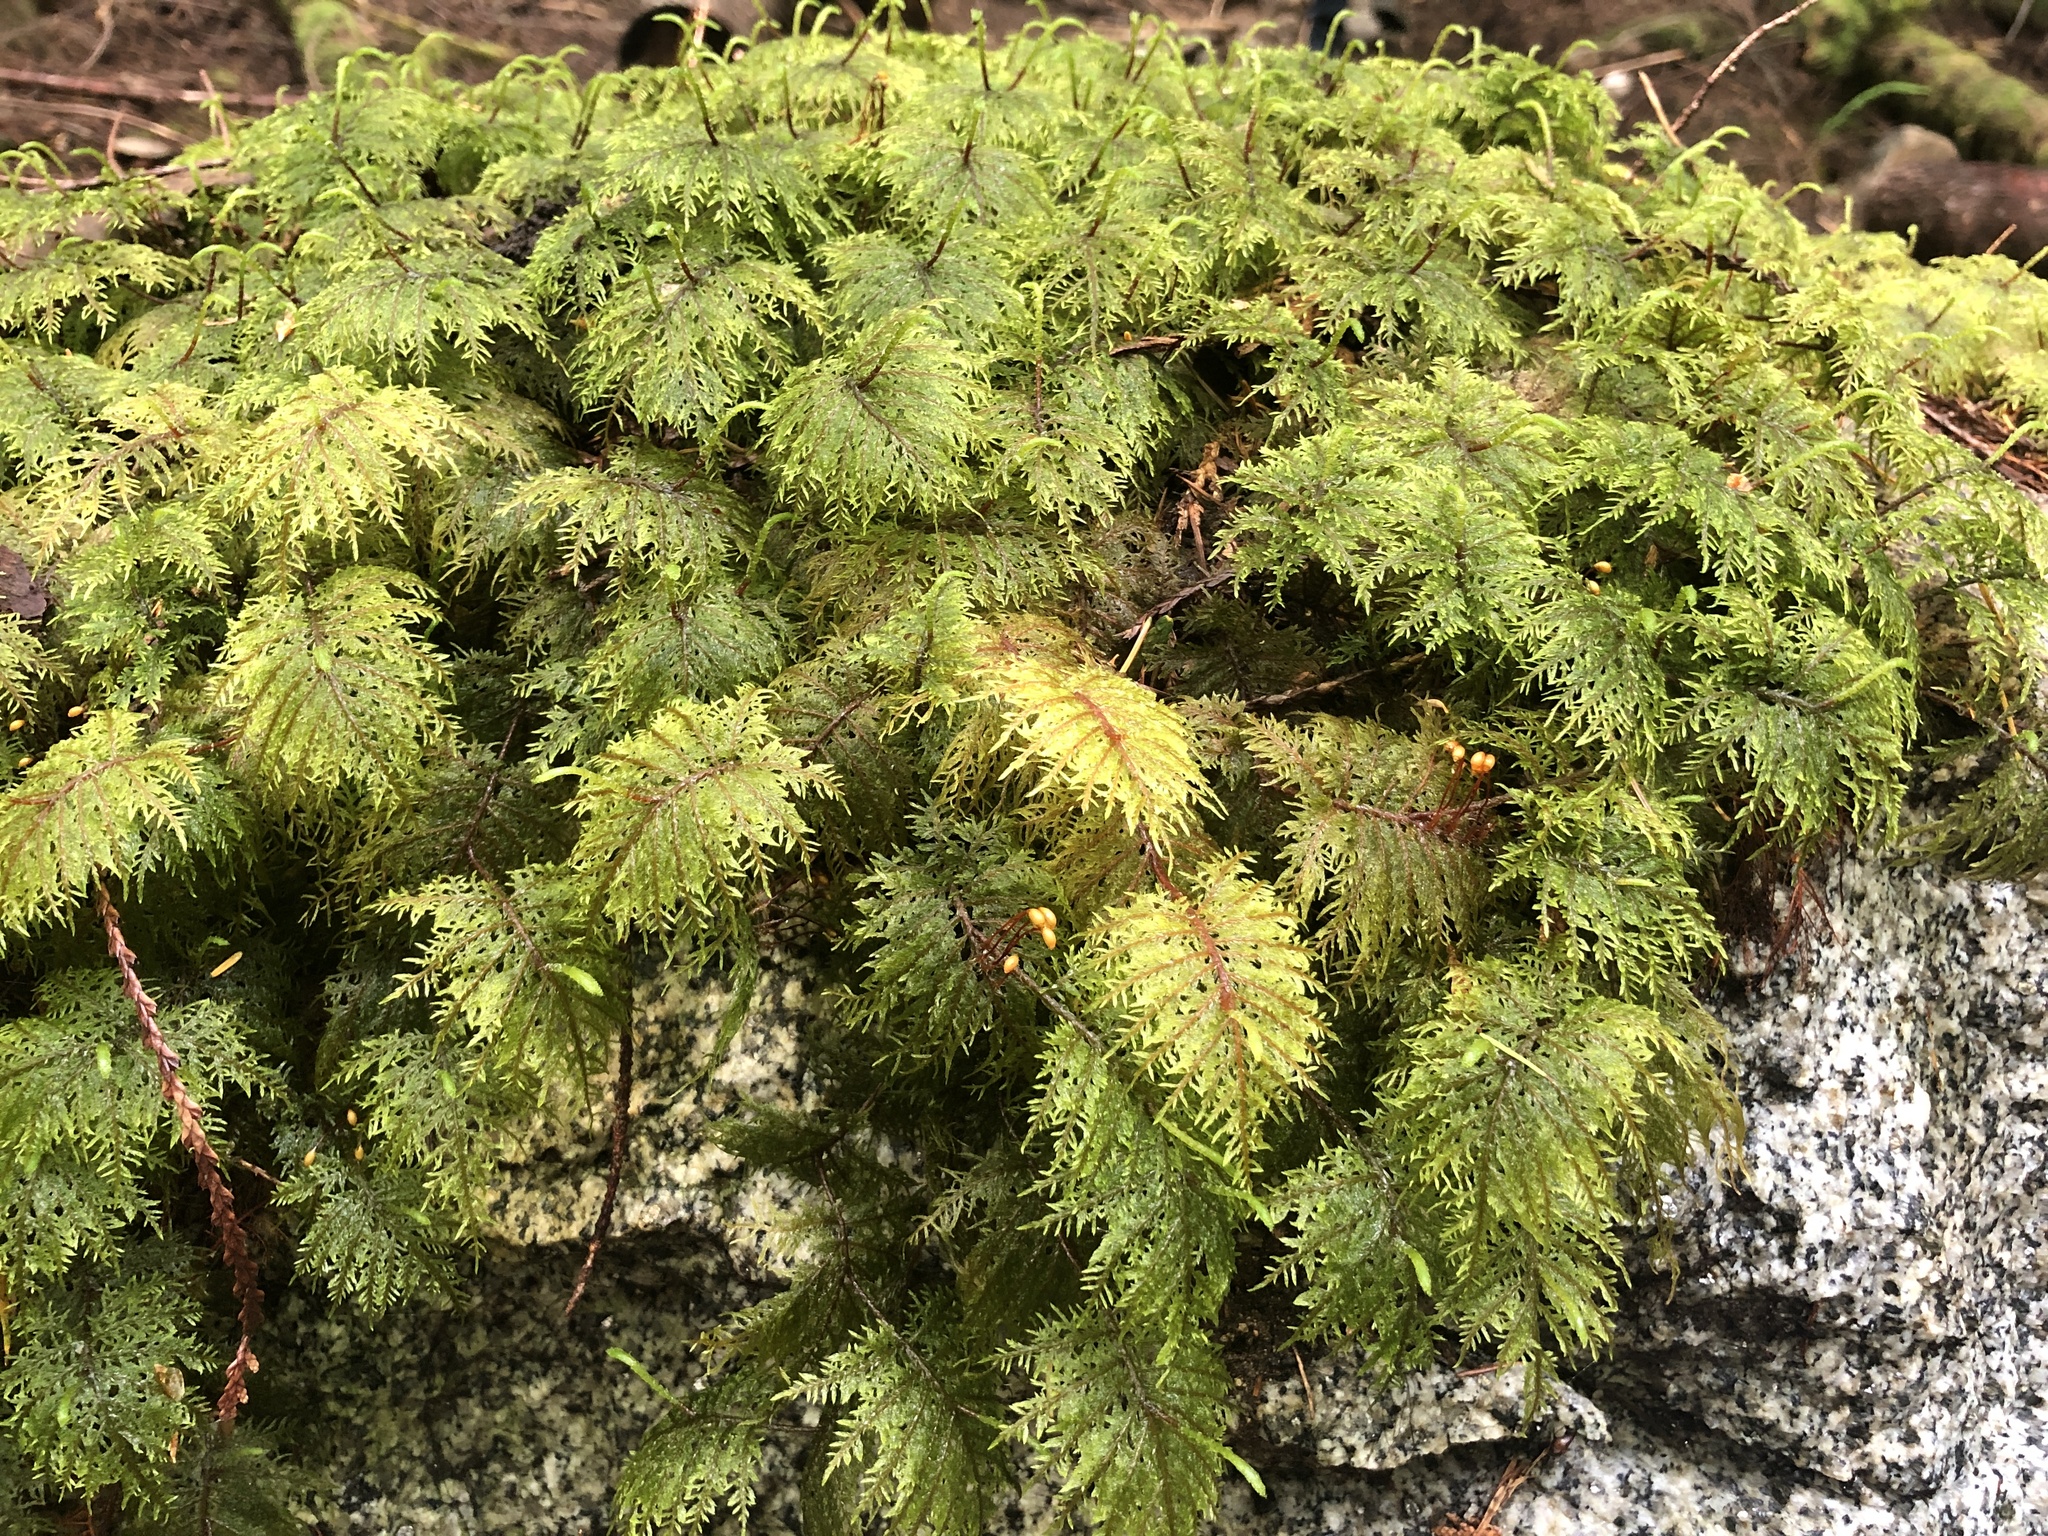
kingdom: Plantae
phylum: Bryophyta
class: Bryopsida
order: Hypnales
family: Hylocomiaceae
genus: Hylocomium
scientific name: Hylocomium splendens
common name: Stairstep moss
